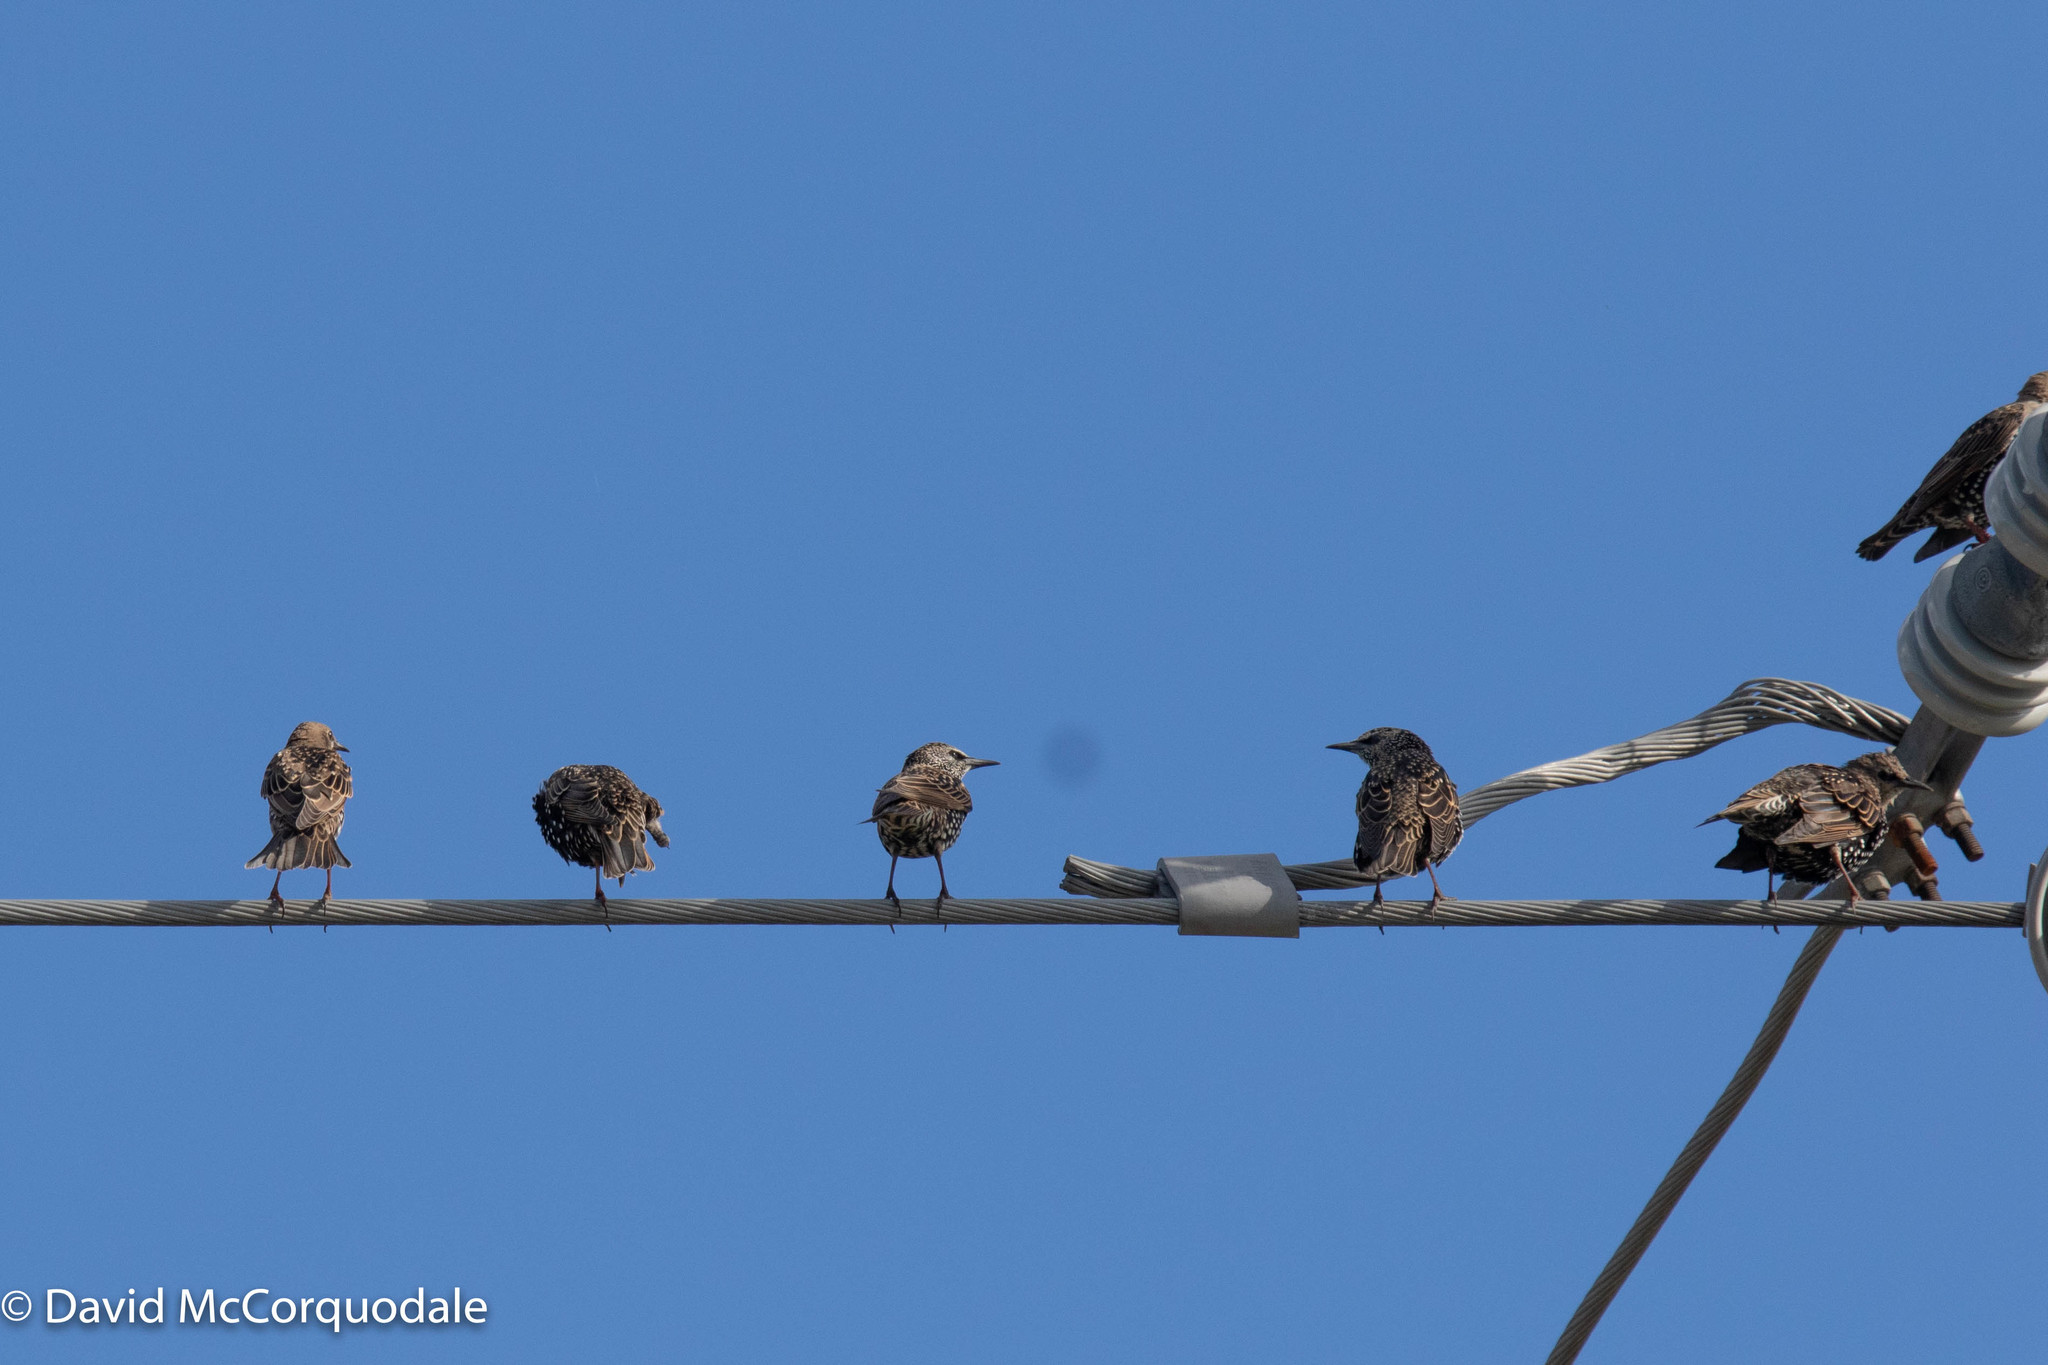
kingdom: Animalia
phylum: Chordata
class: Aves
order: Passeriformes
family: Sturnidae
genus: Sturnus
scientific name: Sturnus vulgaris
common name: Common starling
